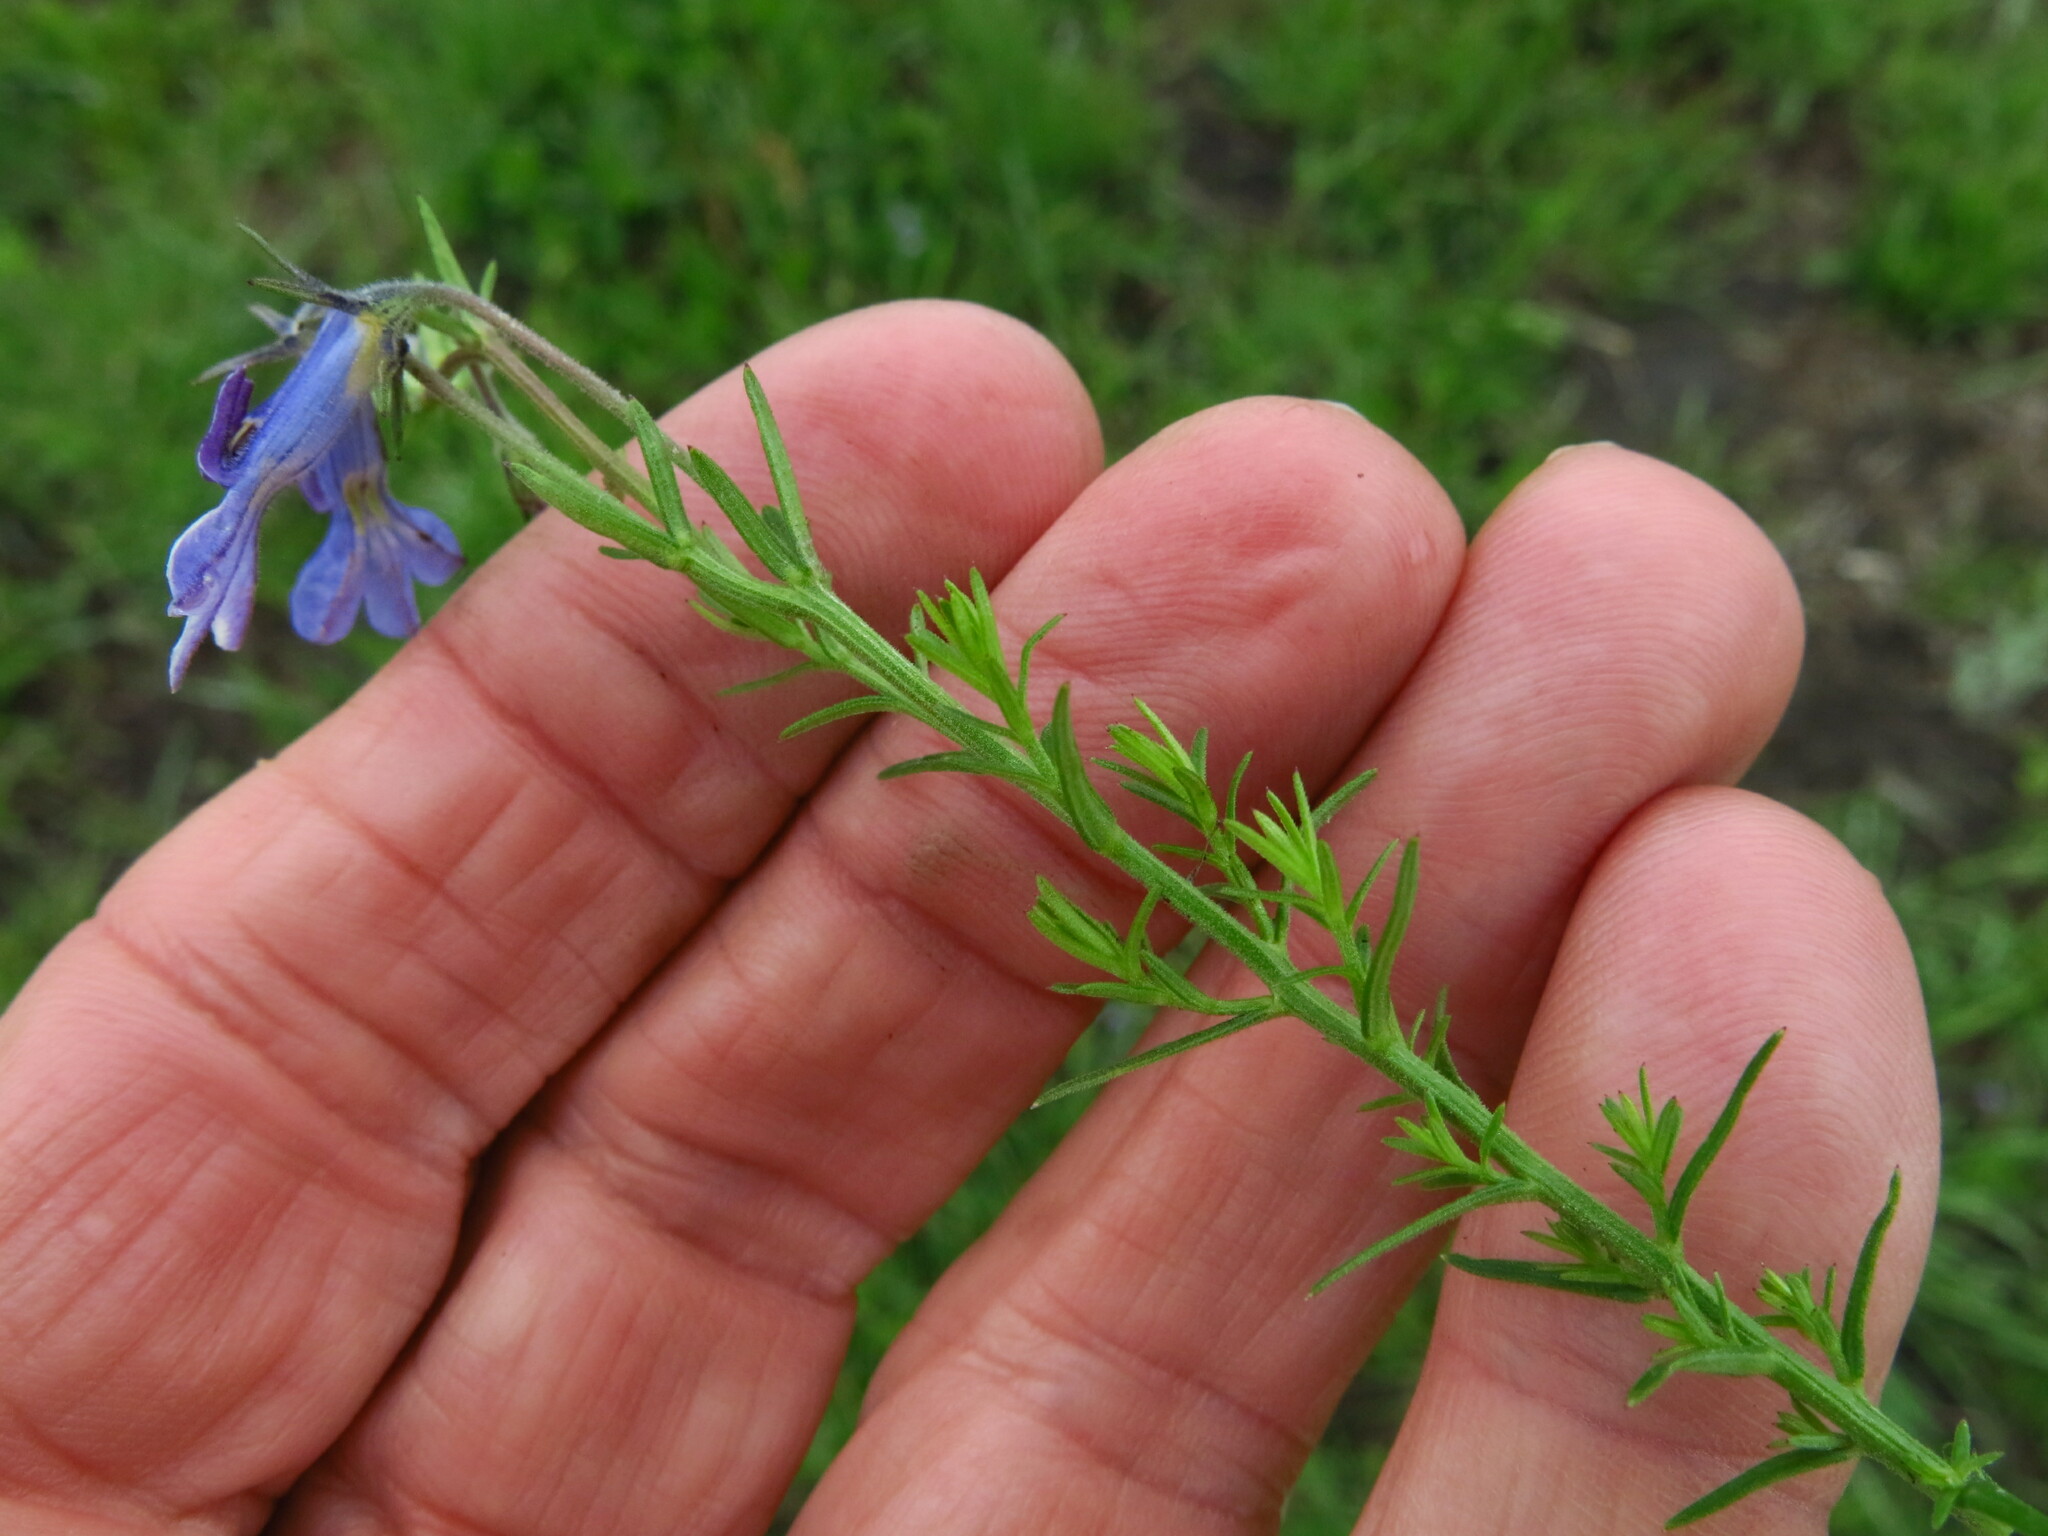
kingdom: Plantae
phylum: Tracheophyta
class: Magnoliopsida
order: Asterales
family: Campanulaceae
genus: Monopsis
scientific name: Monopsis decipiens
